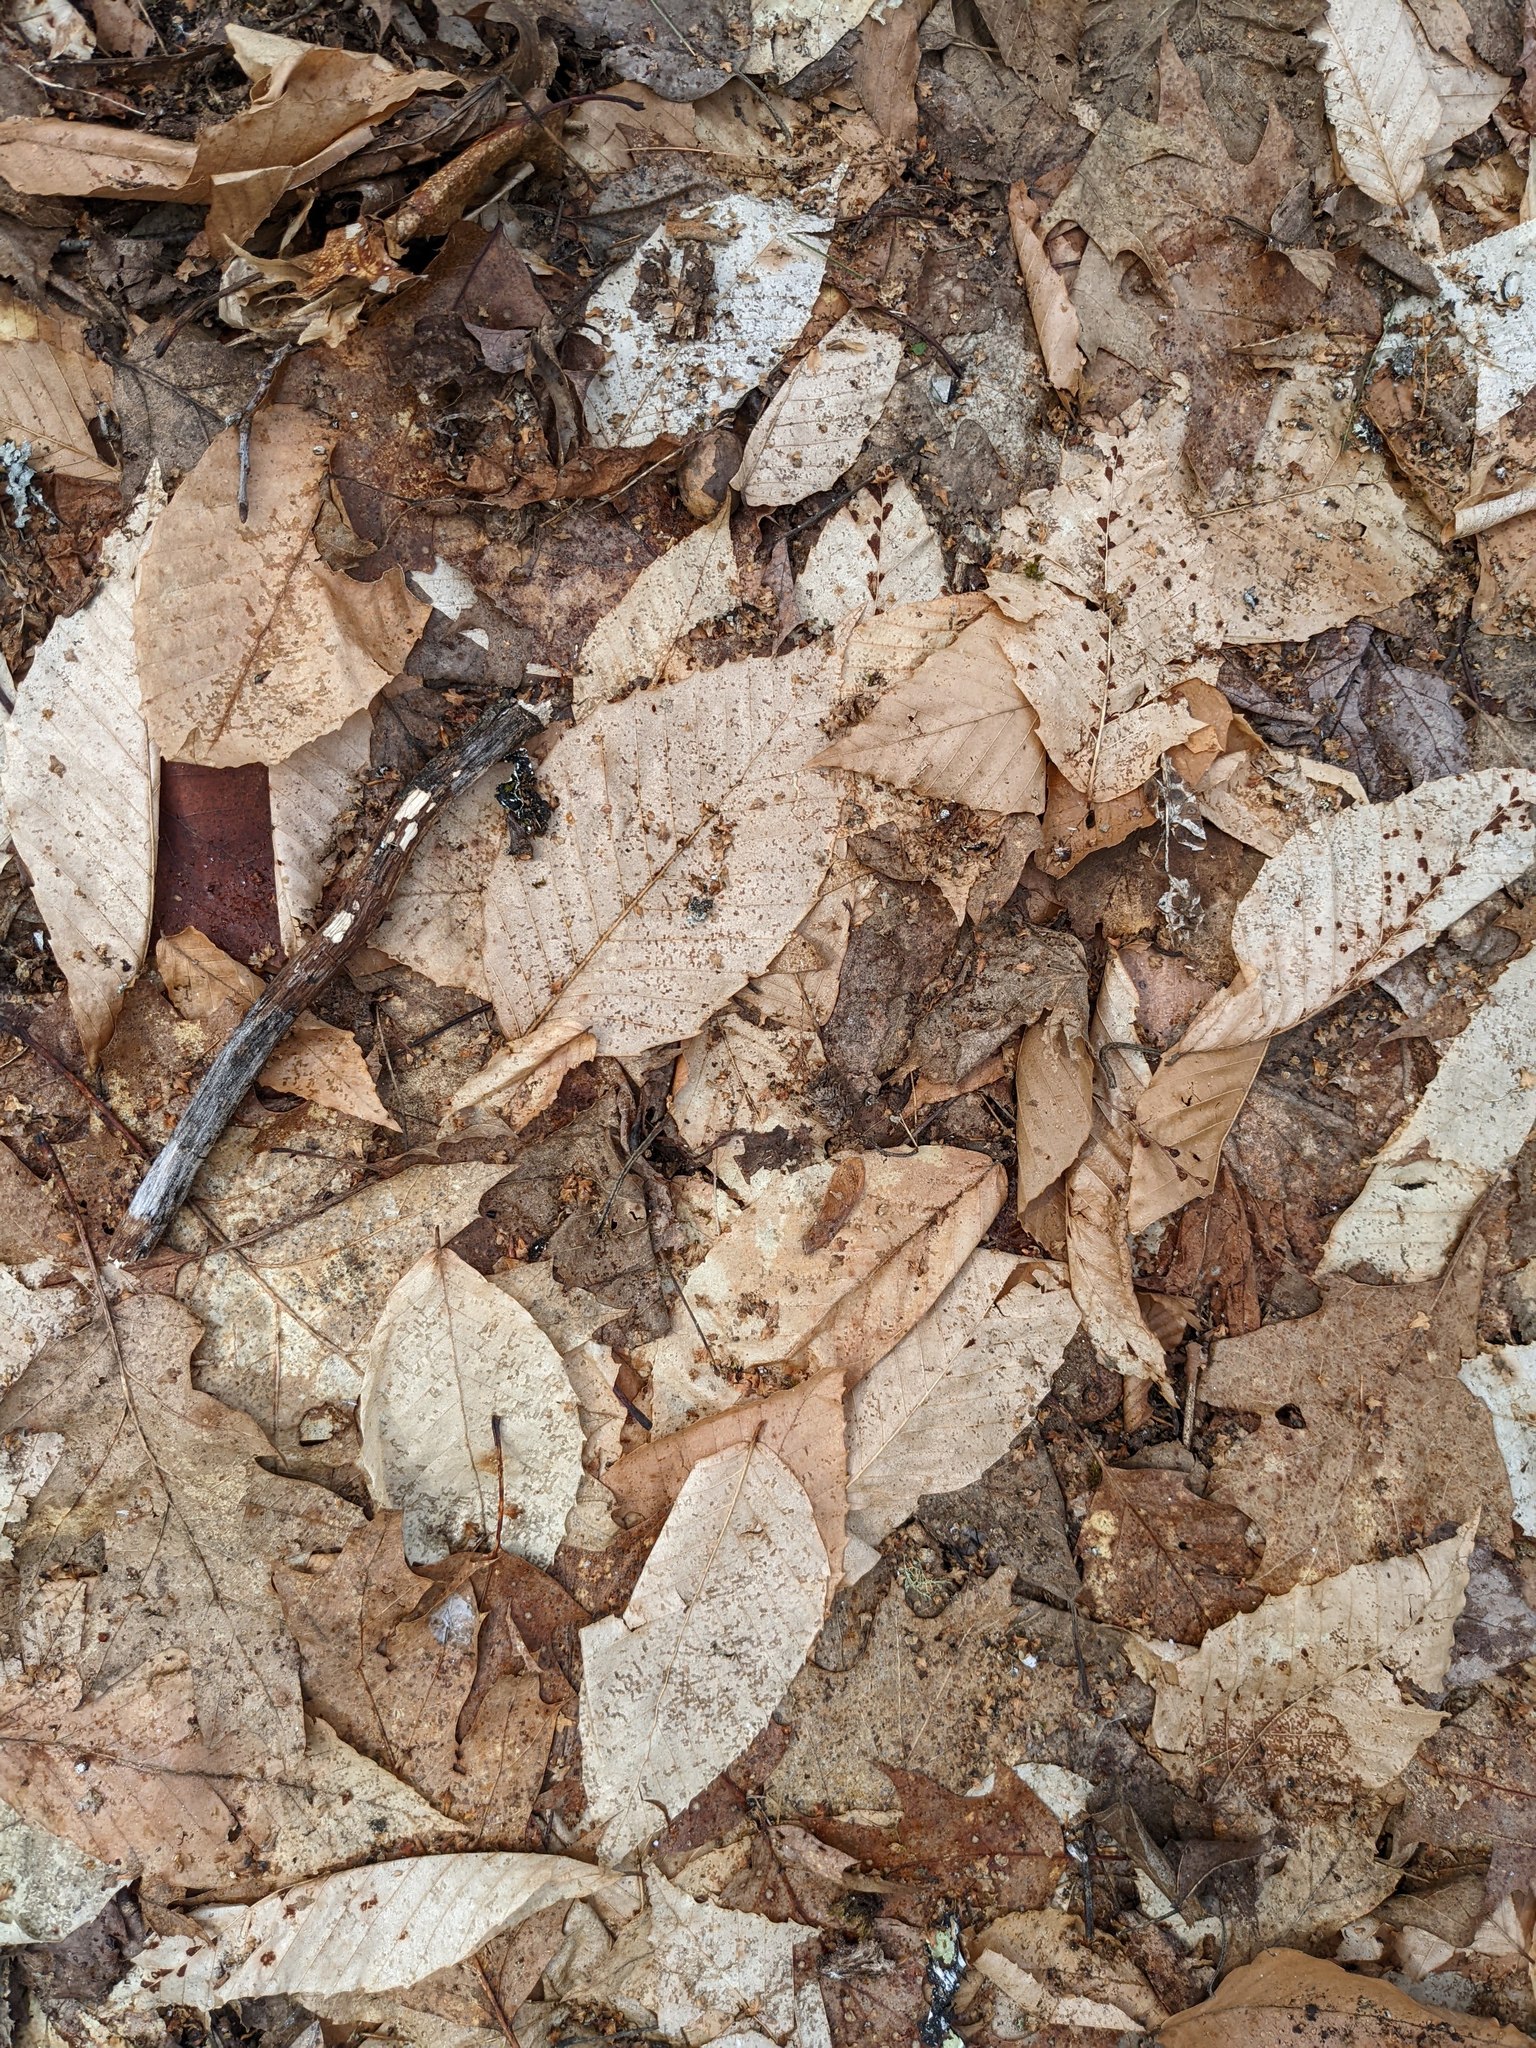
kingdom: Plantae
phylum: Tracheophyta
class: Magnoliopsida
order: Fagales
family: Fagaceae
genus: Fagus
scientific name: Fagus grandifolia
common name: American beech
